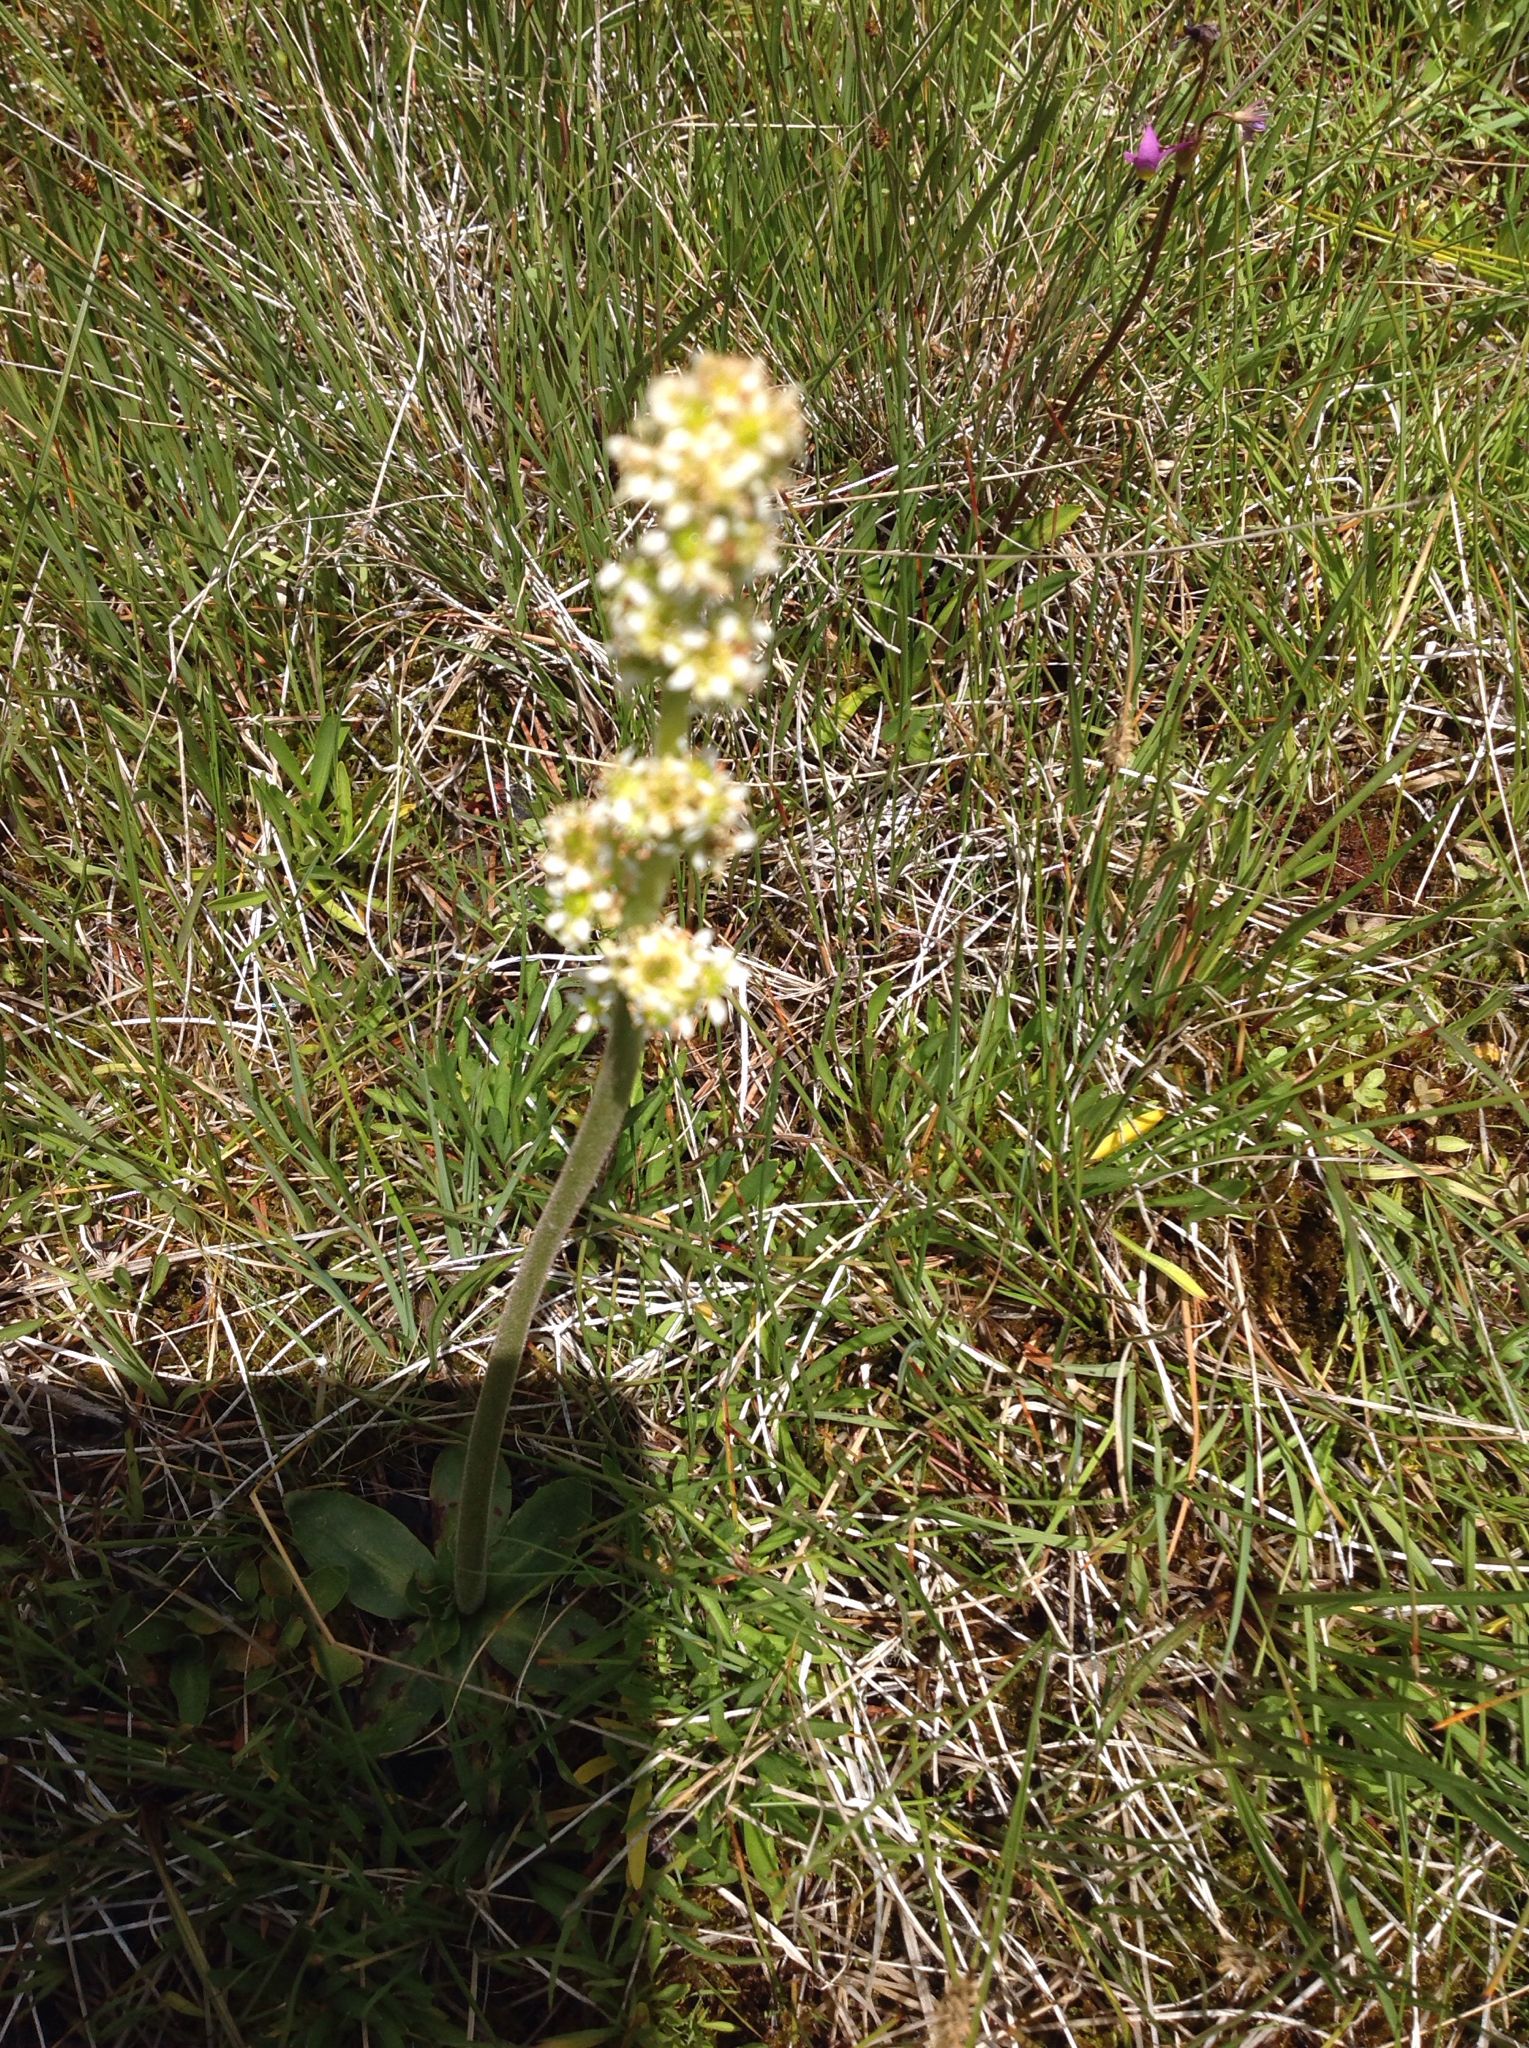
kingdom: Plantae
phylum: Tracheophyta
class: Magnoliopsida
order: Saxifragales
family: Saxifragaceae
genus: Micranthes
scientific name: Micranthes oregana
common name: Bog saxifrage
